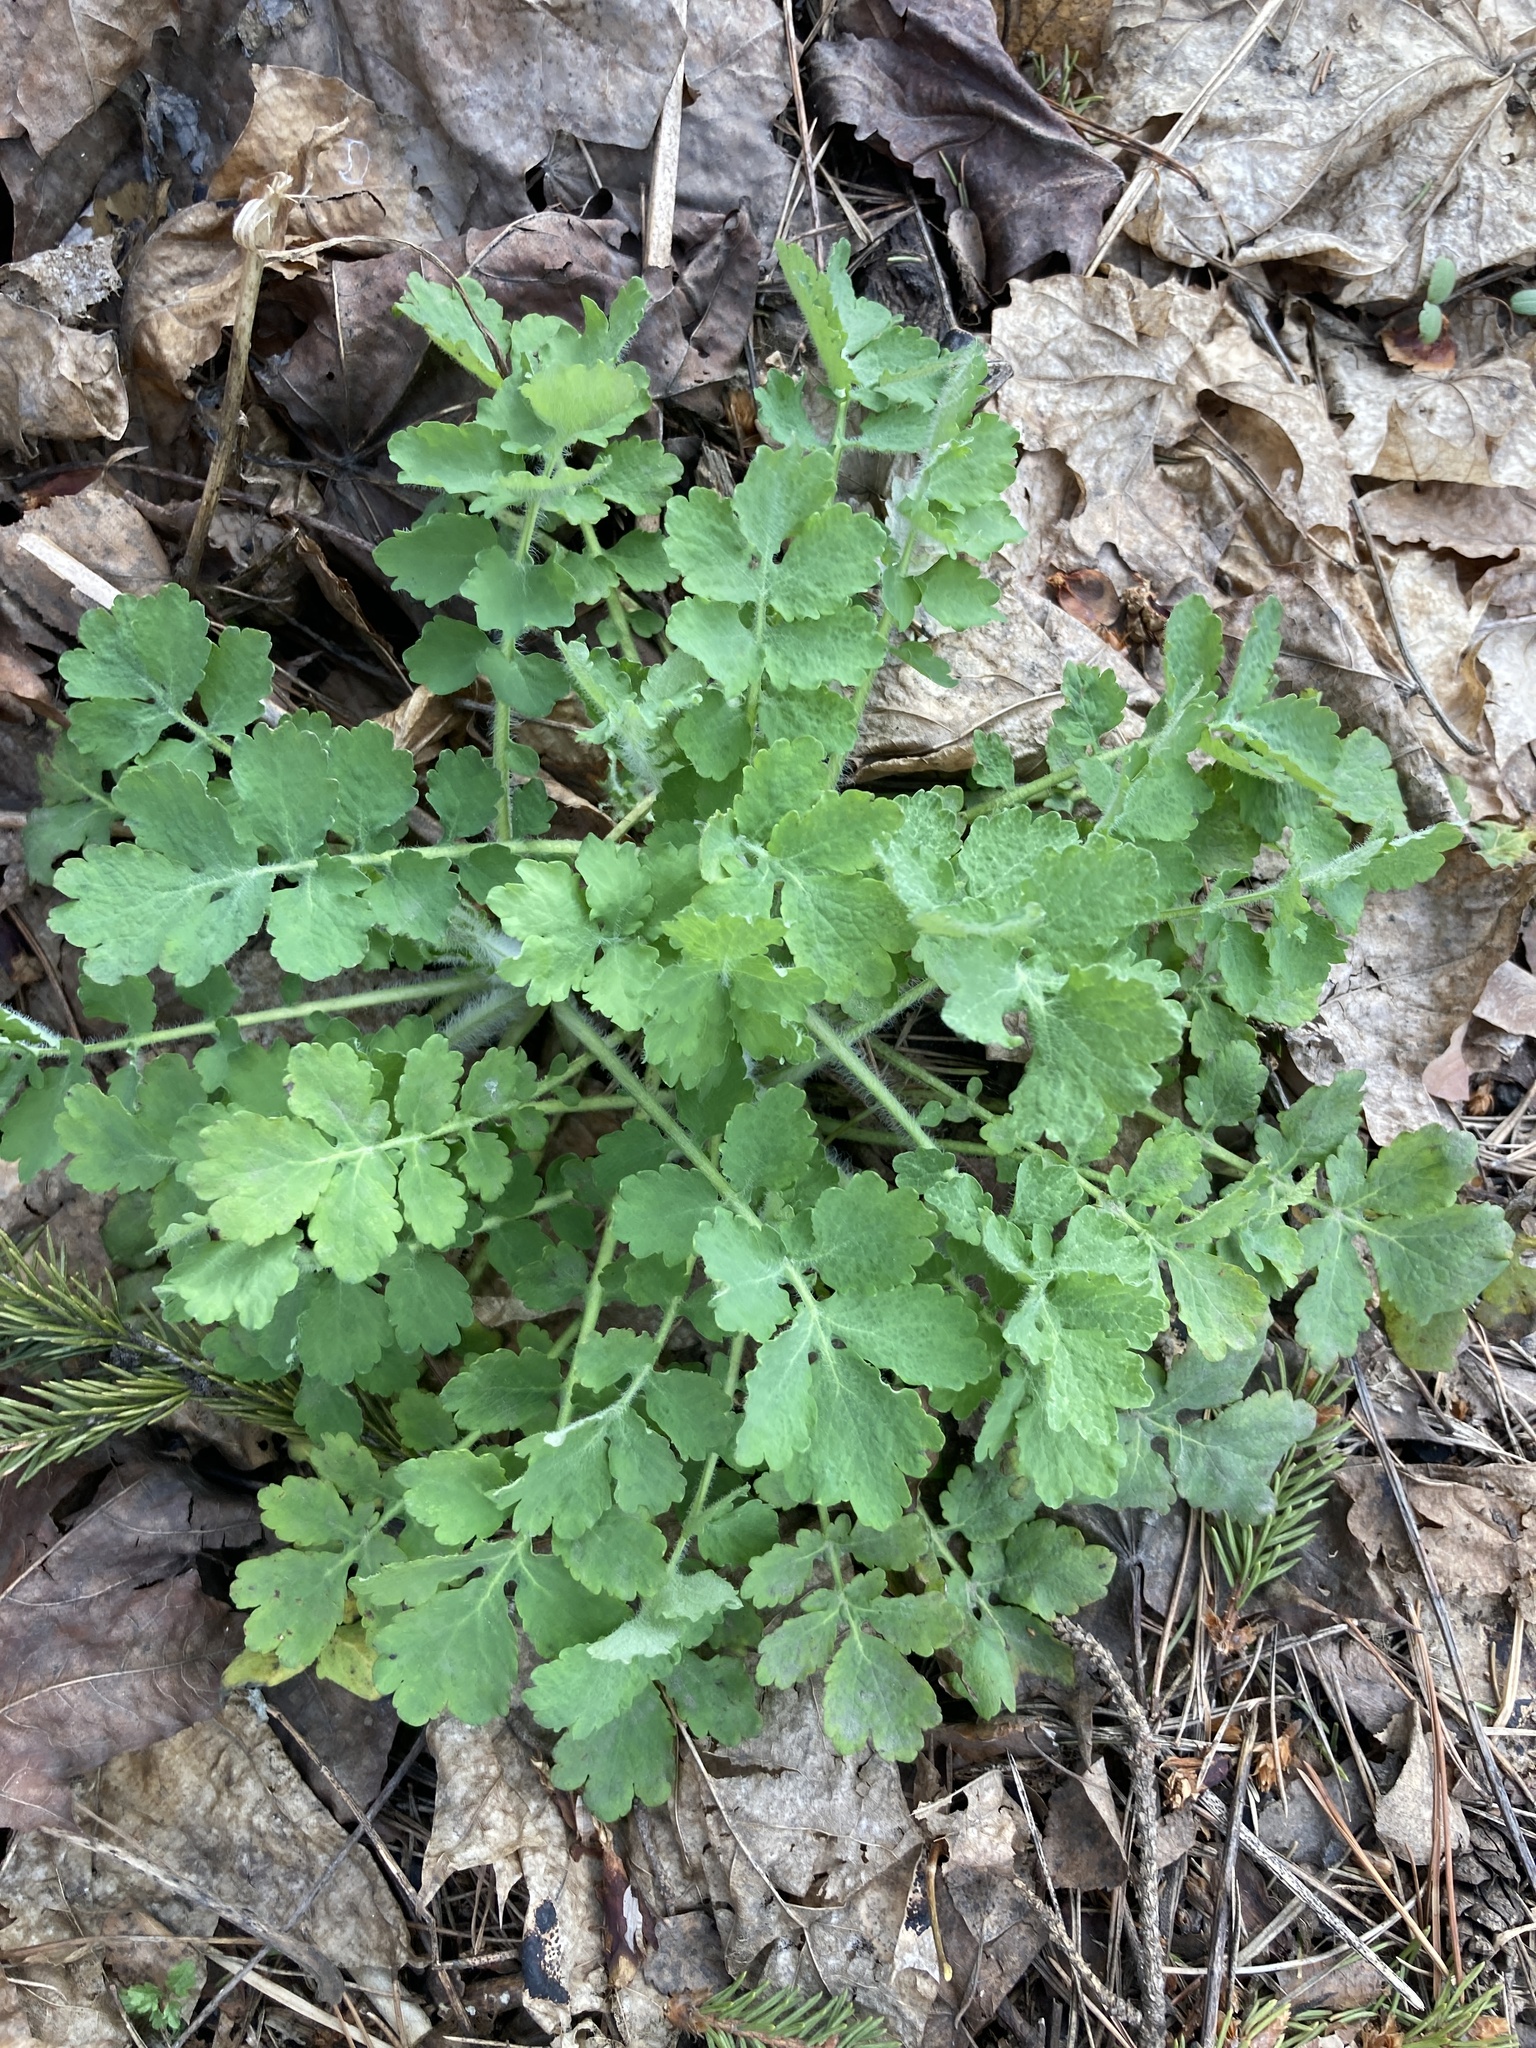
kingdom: Plantae
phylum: Tracheophyta
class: Magnoliopsida
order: Ranunculales
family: Papaveraceae
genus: Chelidonium
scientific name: Chelidonium majus
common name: Greater celandine
